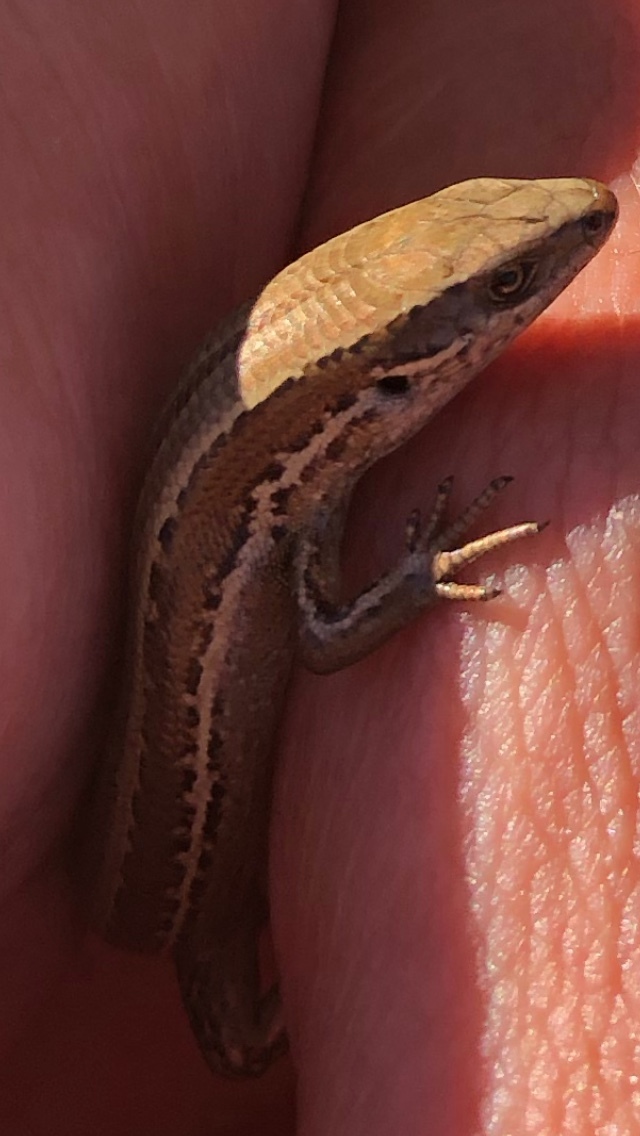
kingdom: Animalia
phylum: Chordata
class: Squamata
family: Scincidae
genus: Oligosoma
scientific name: Oligosoma polychroma
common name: Common new zealand skink
